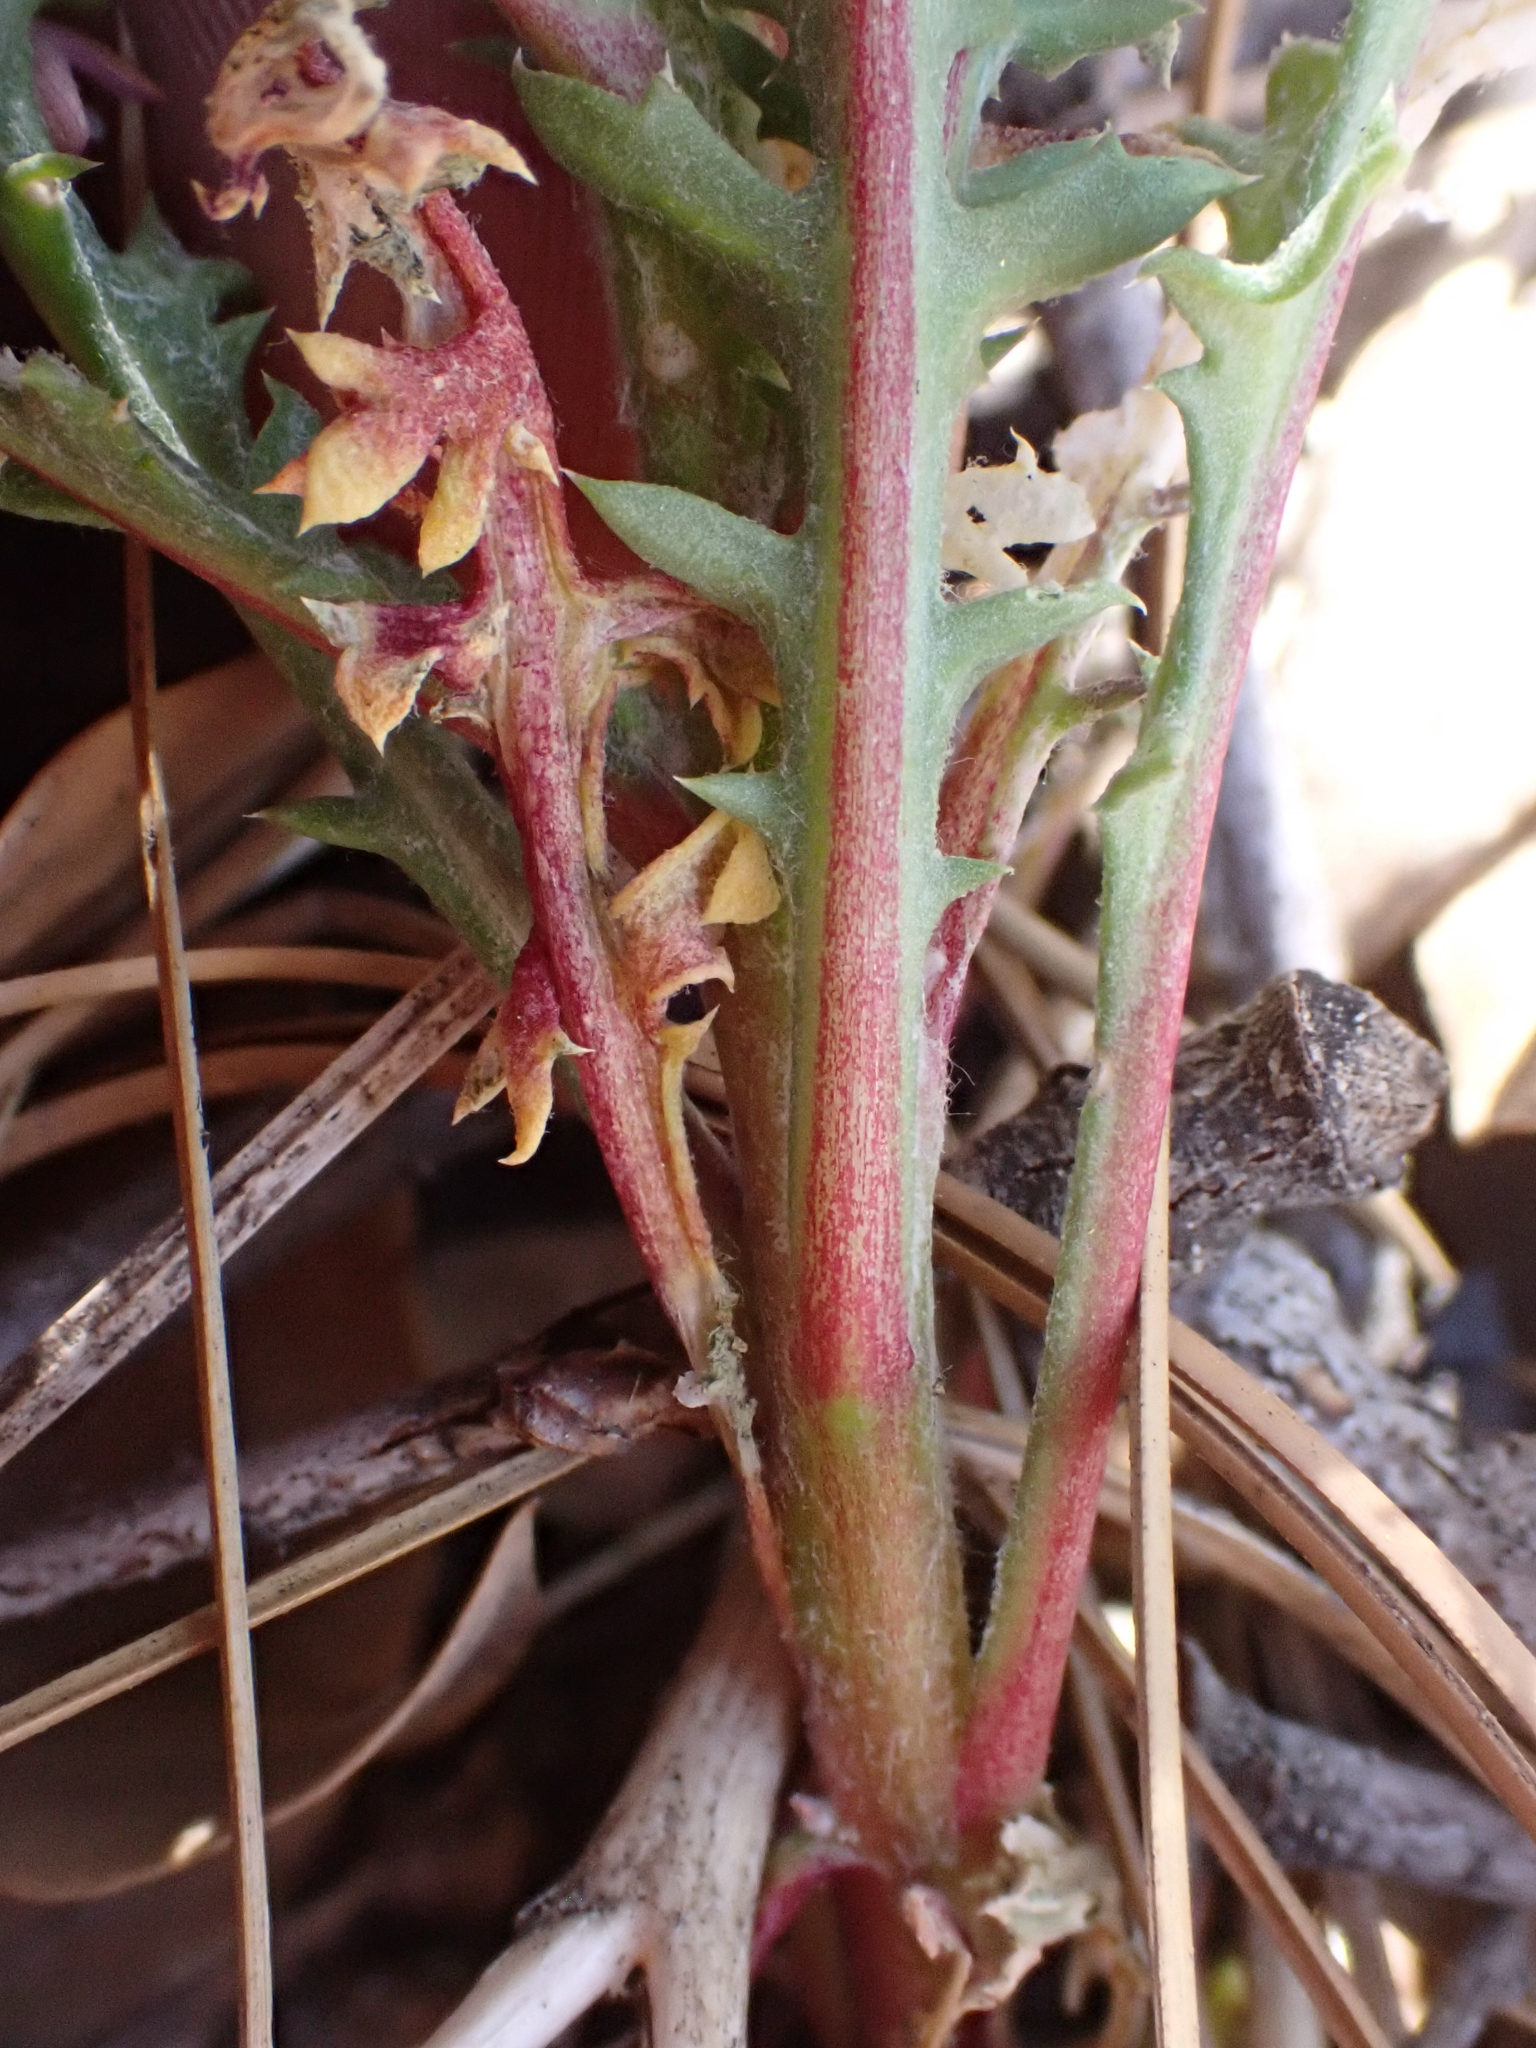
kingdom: Plantae
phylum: Tracheophyta
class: Magnoliopsida
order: Ericales
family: Polemoniaceae
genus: Gilia
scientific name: Gilia leptantha
